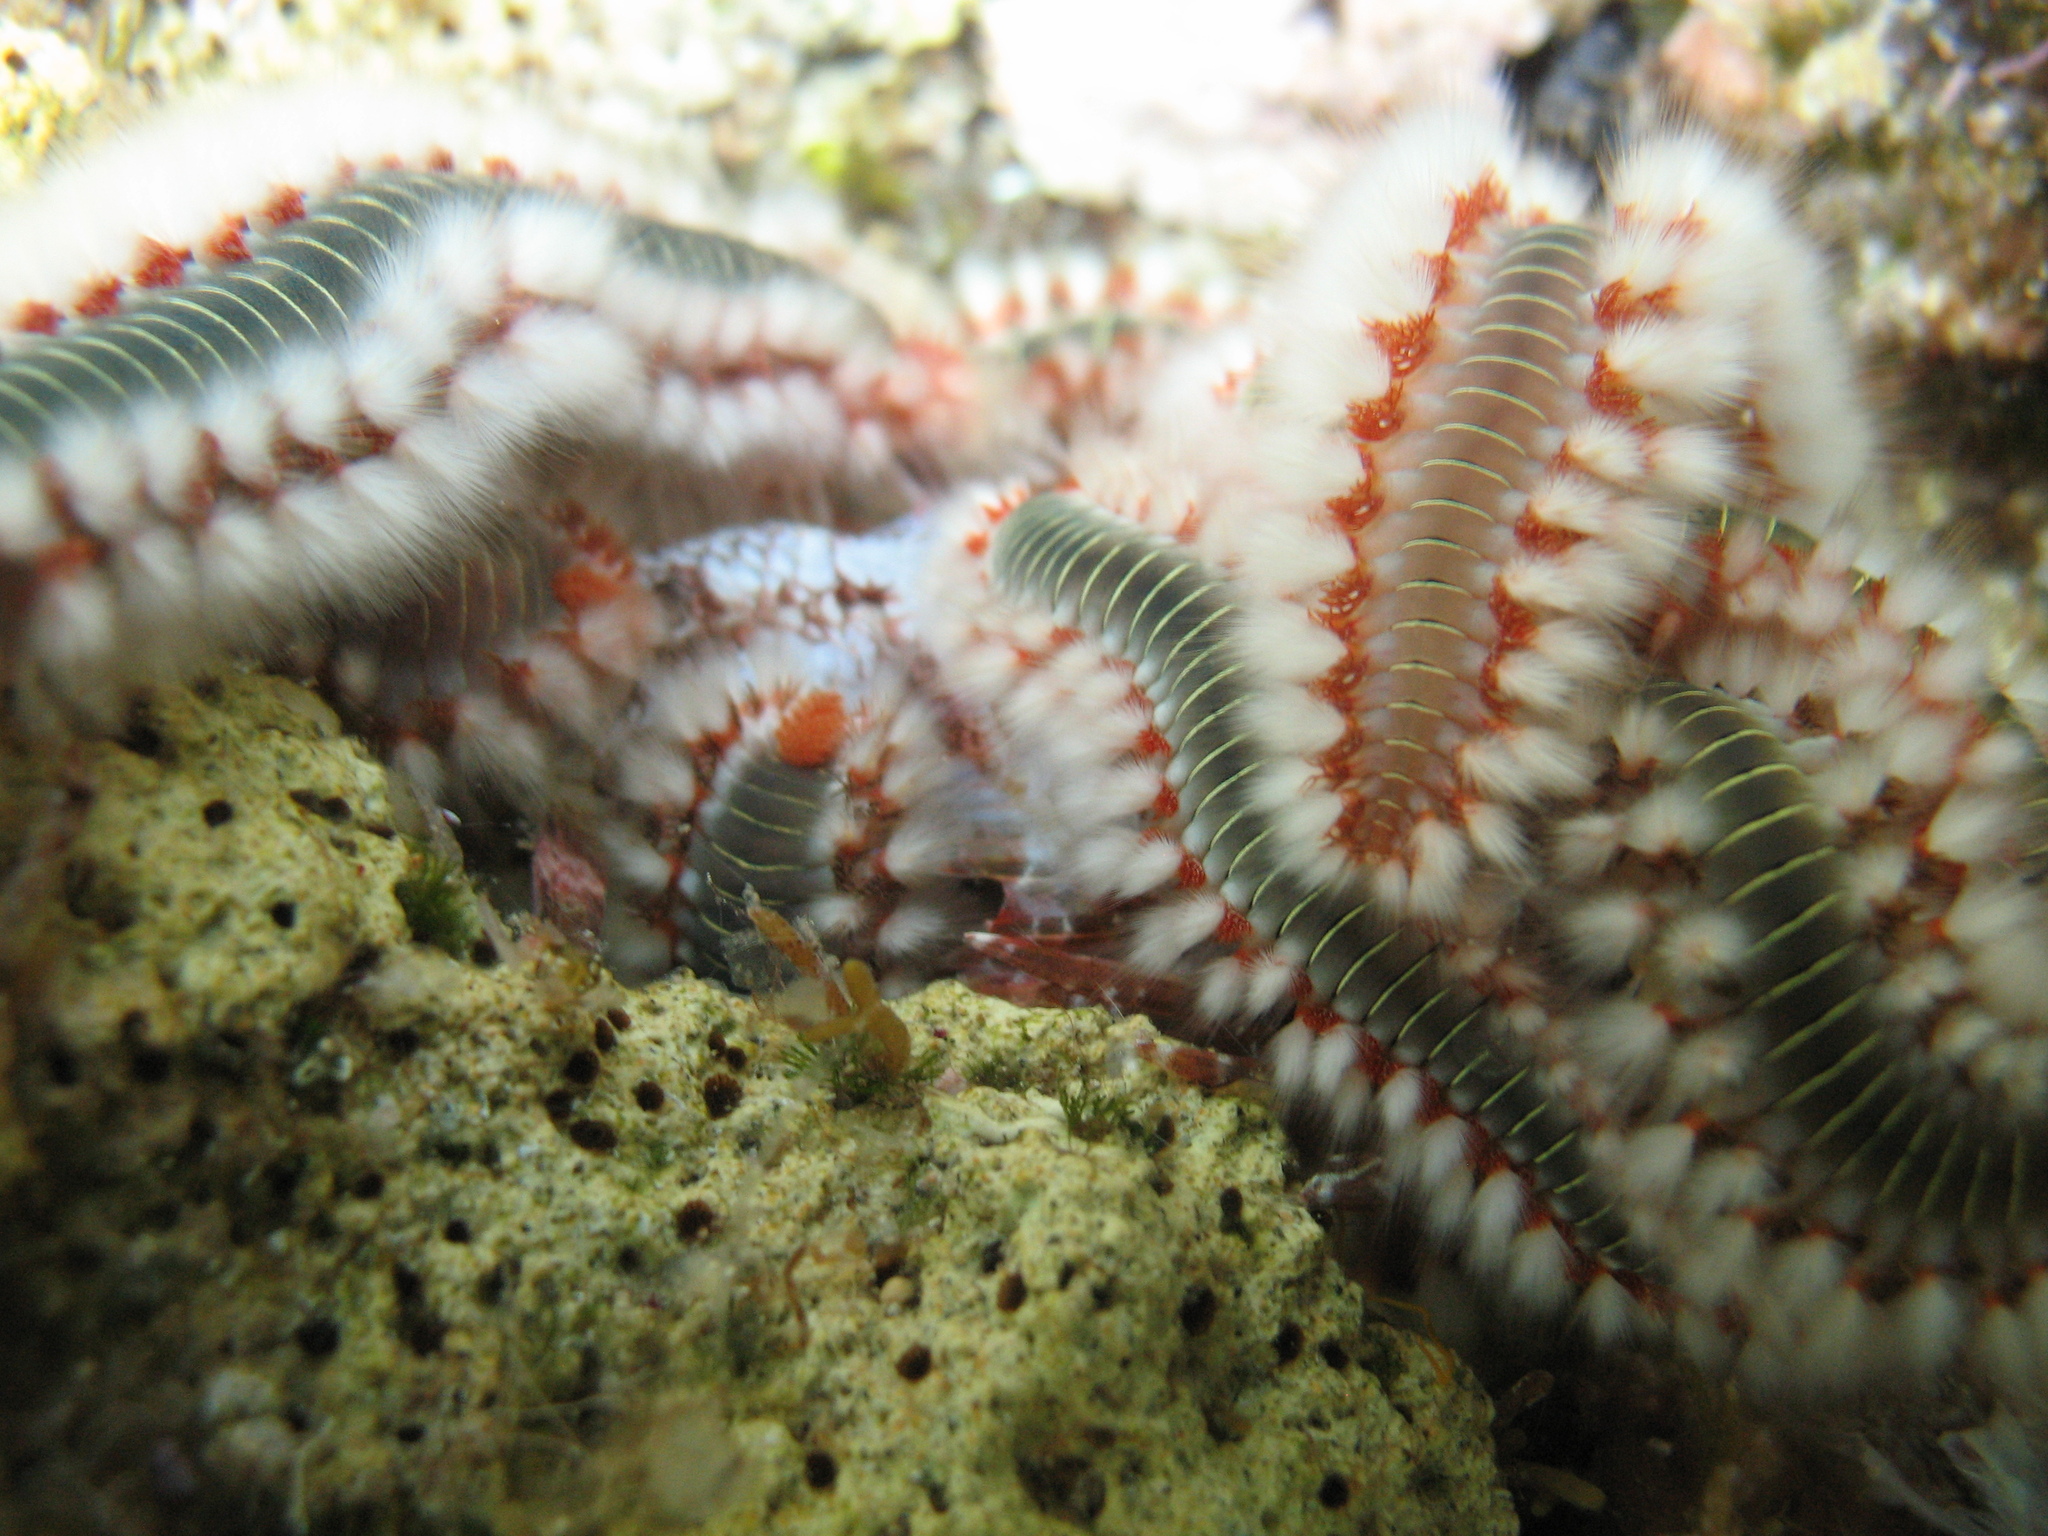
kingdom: Animalia
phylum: Annelida
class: Polychaeta
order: Amphinomida
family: Amphinomidae
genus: Hermodice
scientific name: Hermodice carunculata
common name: Bearded fireworm
